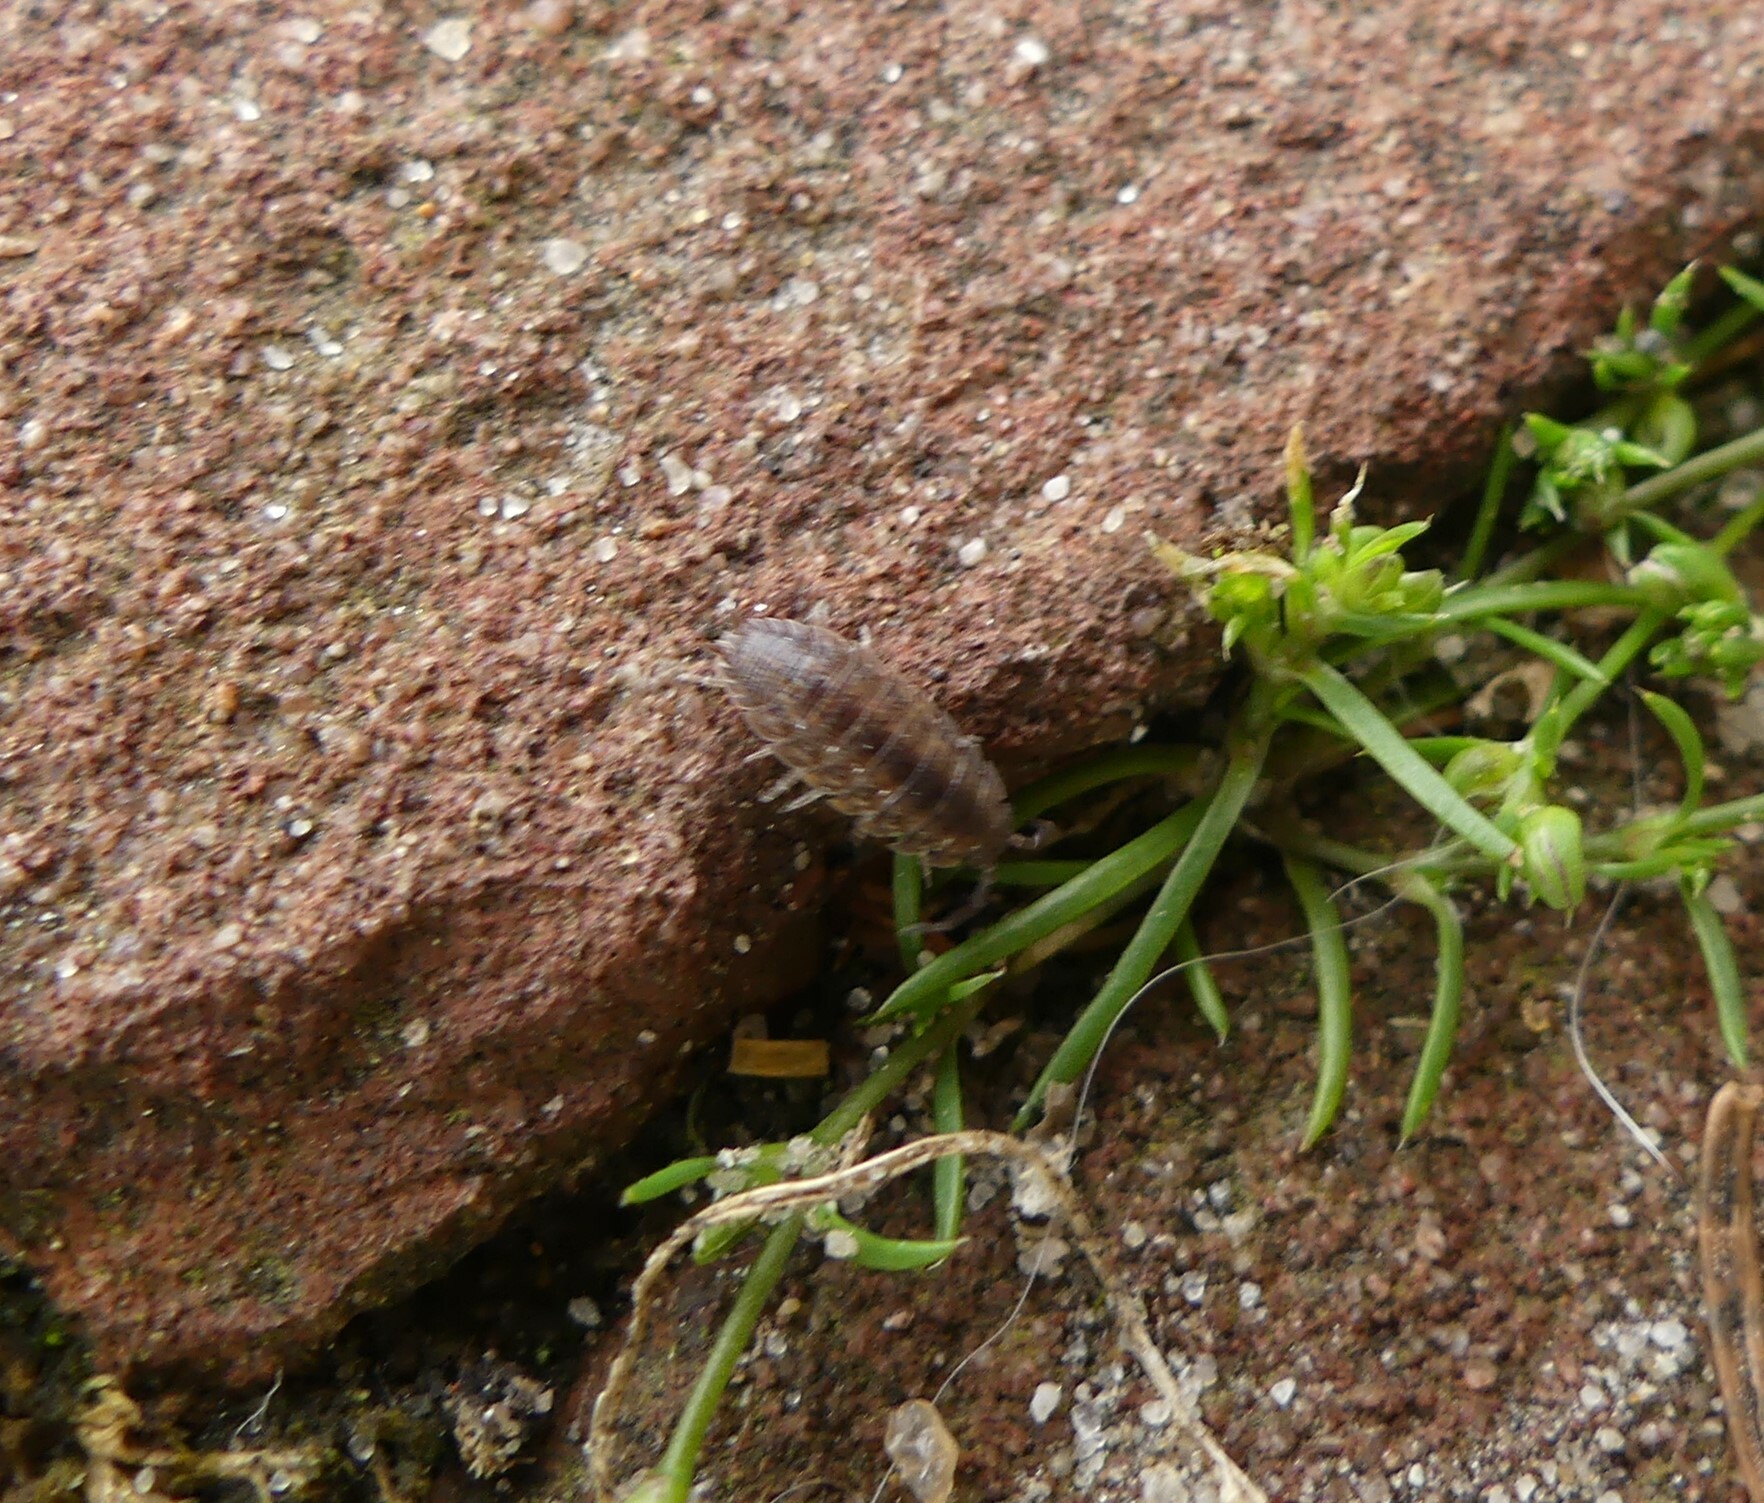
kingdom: Animalia
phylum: Arthropoda
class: Malacostraca
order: Isopoda
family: Porcellionidae
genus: Porcellio
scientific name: Porcellio scaber
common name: Common rough woodlouse
